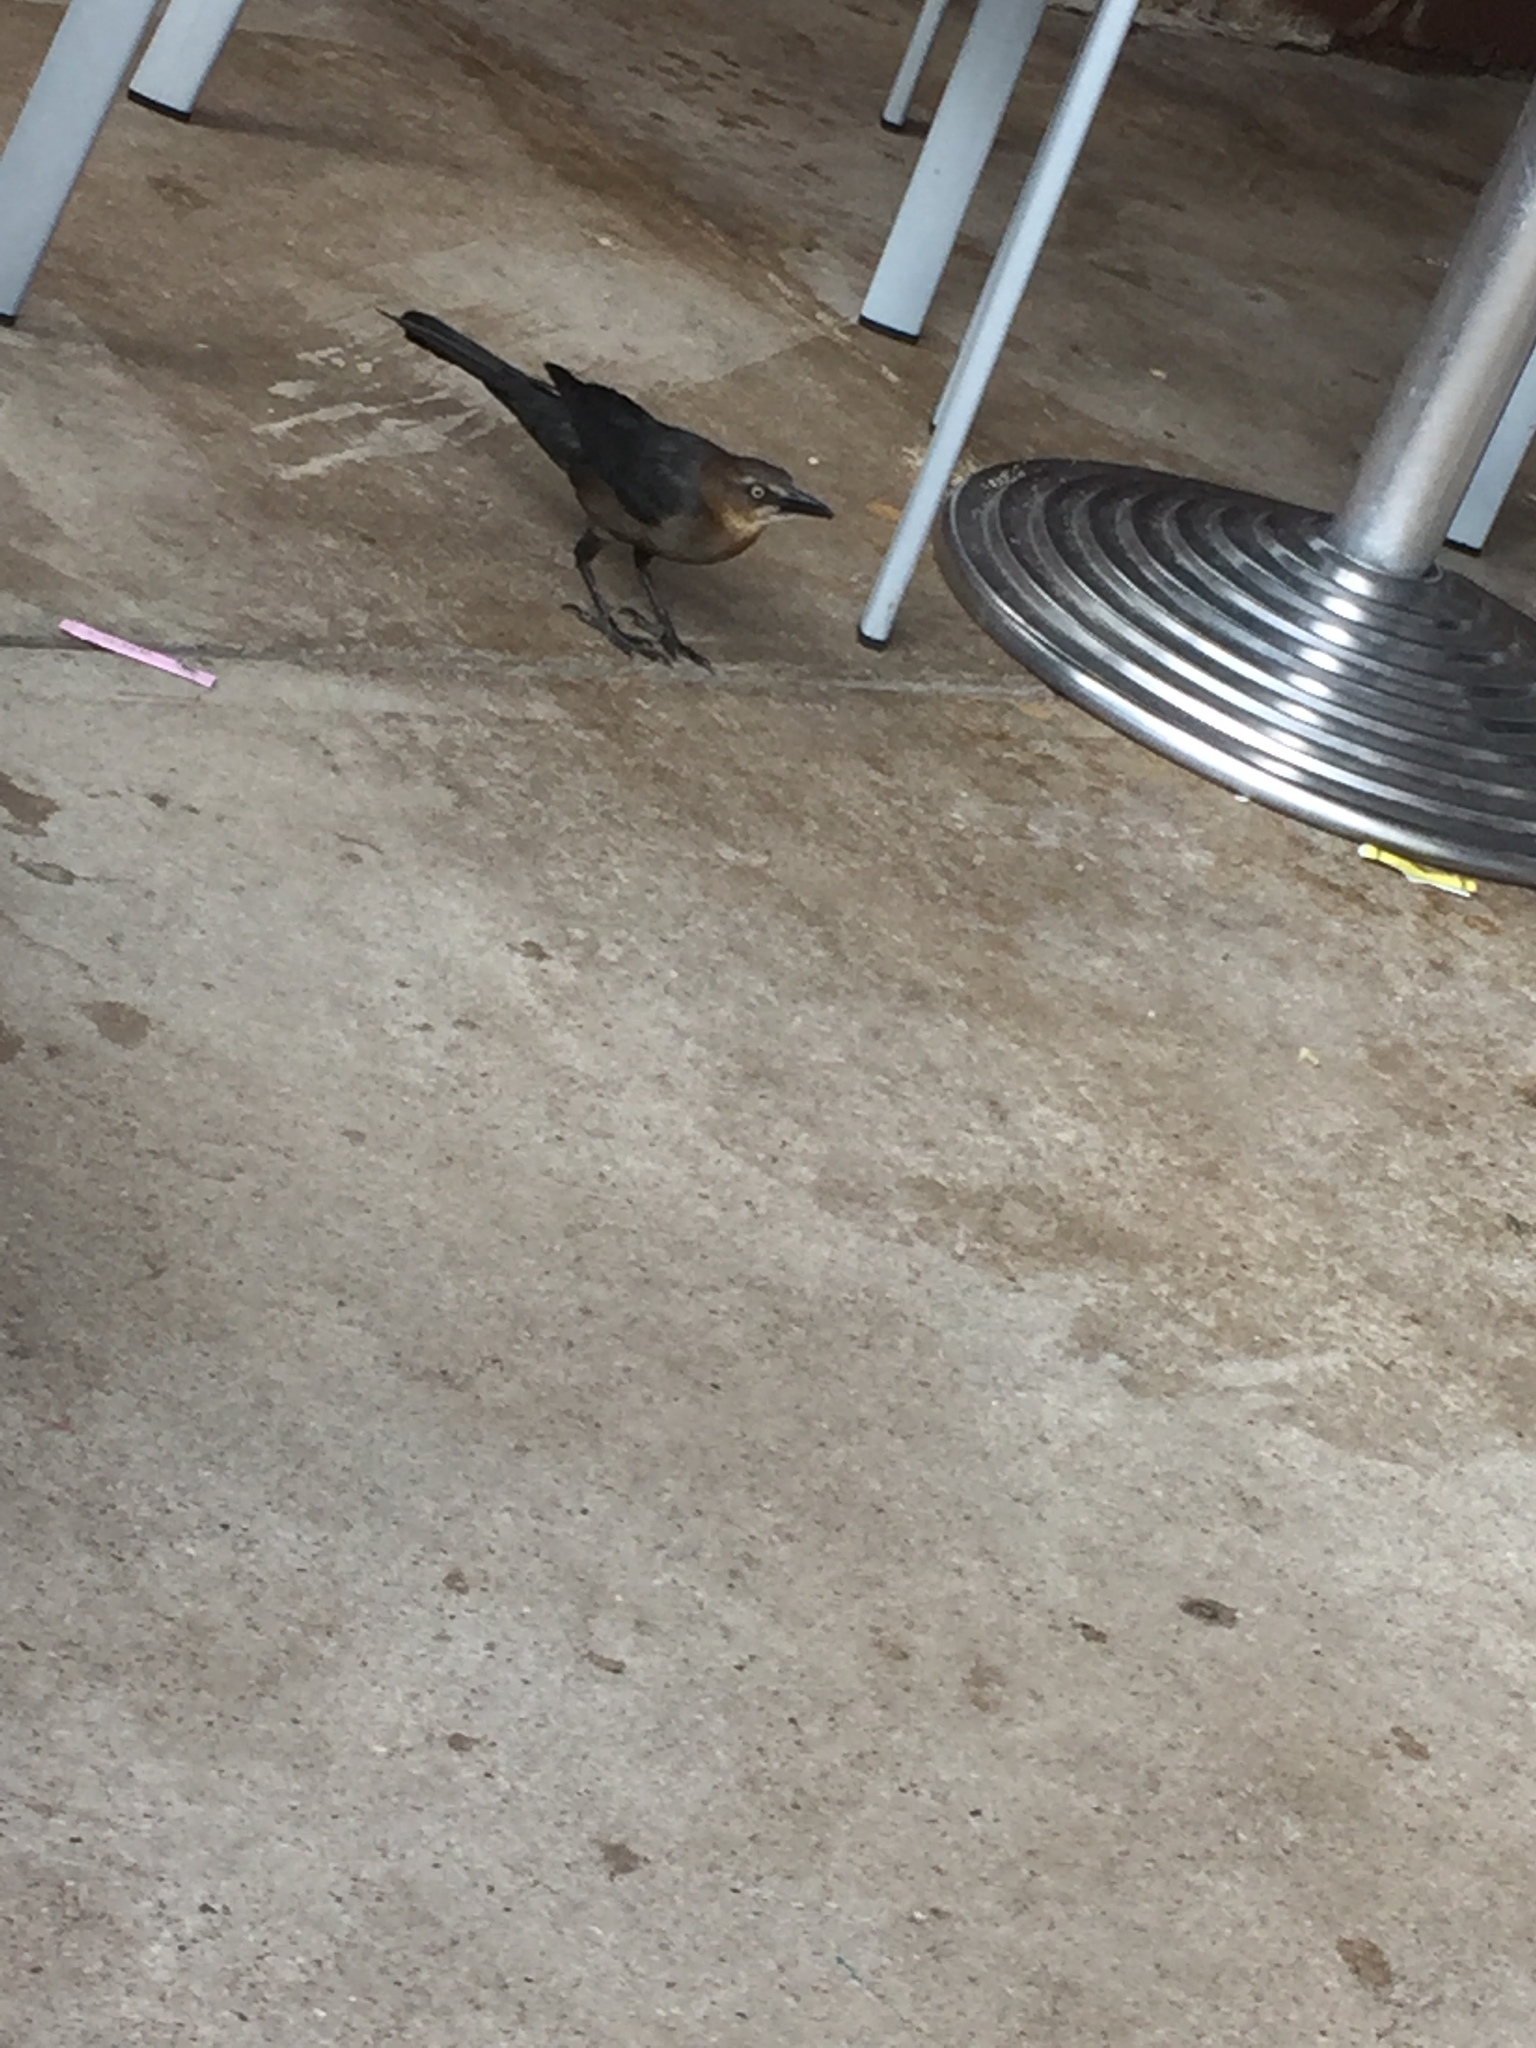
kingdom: Animalia
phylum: Chordata
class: Aves
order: Passeriformes
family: Icteridae
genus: Quiscalus
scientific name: Quiscalus mexicanus
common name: Great-tailed grackle
